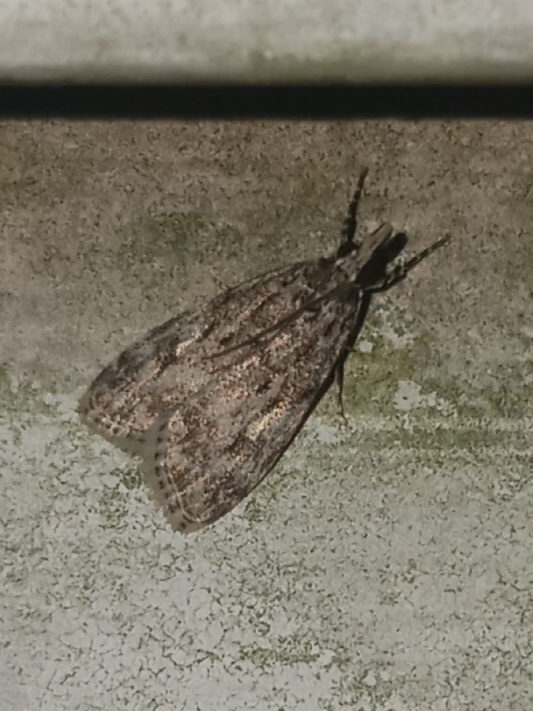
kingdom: Animalia
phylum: Arthropoda
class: Insecta
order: Lepidoptera
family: Crambidae
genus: Eudonia
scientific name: Eudonia heterosalis
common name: Mcdunnough's eudonia
